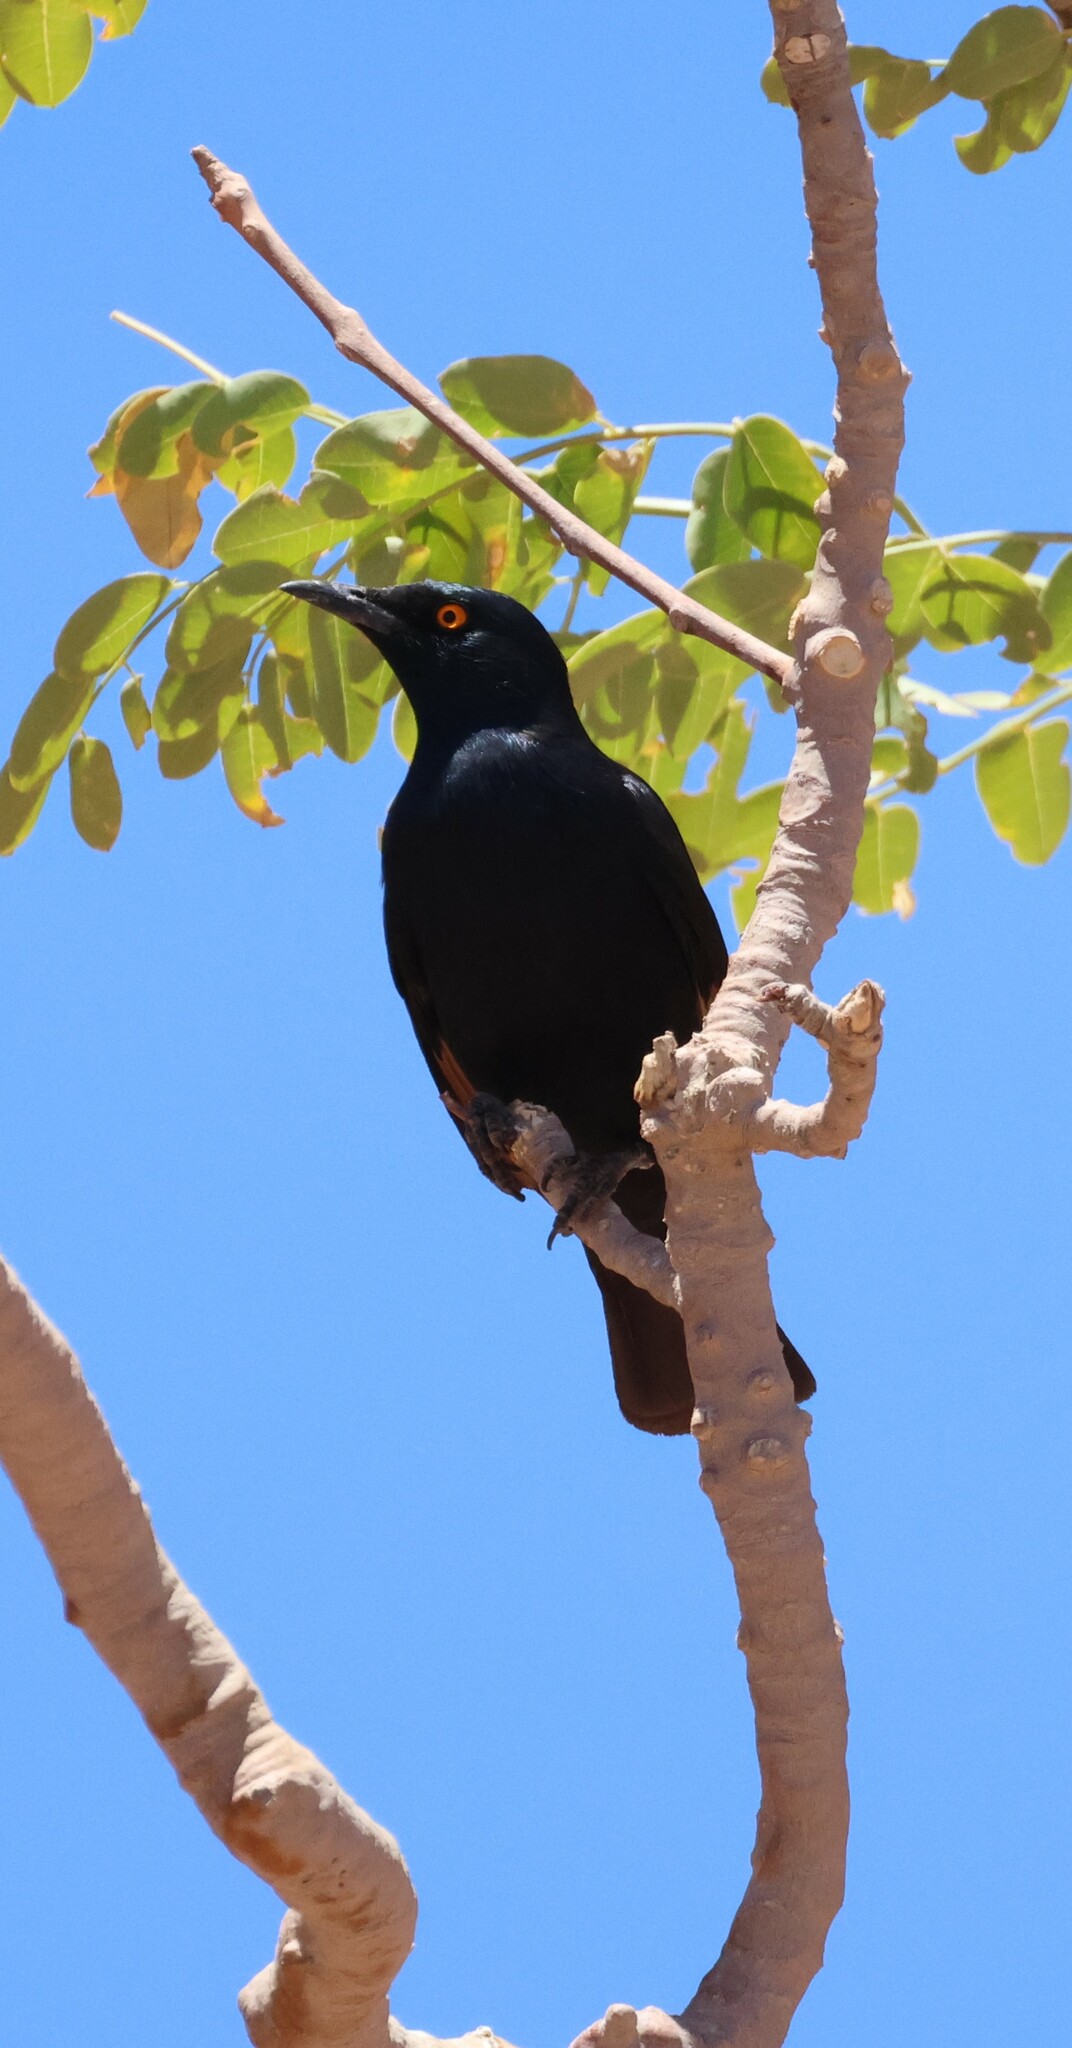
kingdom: Animalia
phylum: Chordata
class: Aves
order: Passeriformes
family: Sturnidae
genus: Onychognathus
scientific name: Onychognathus nabouroup
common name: Pale-winged starling
